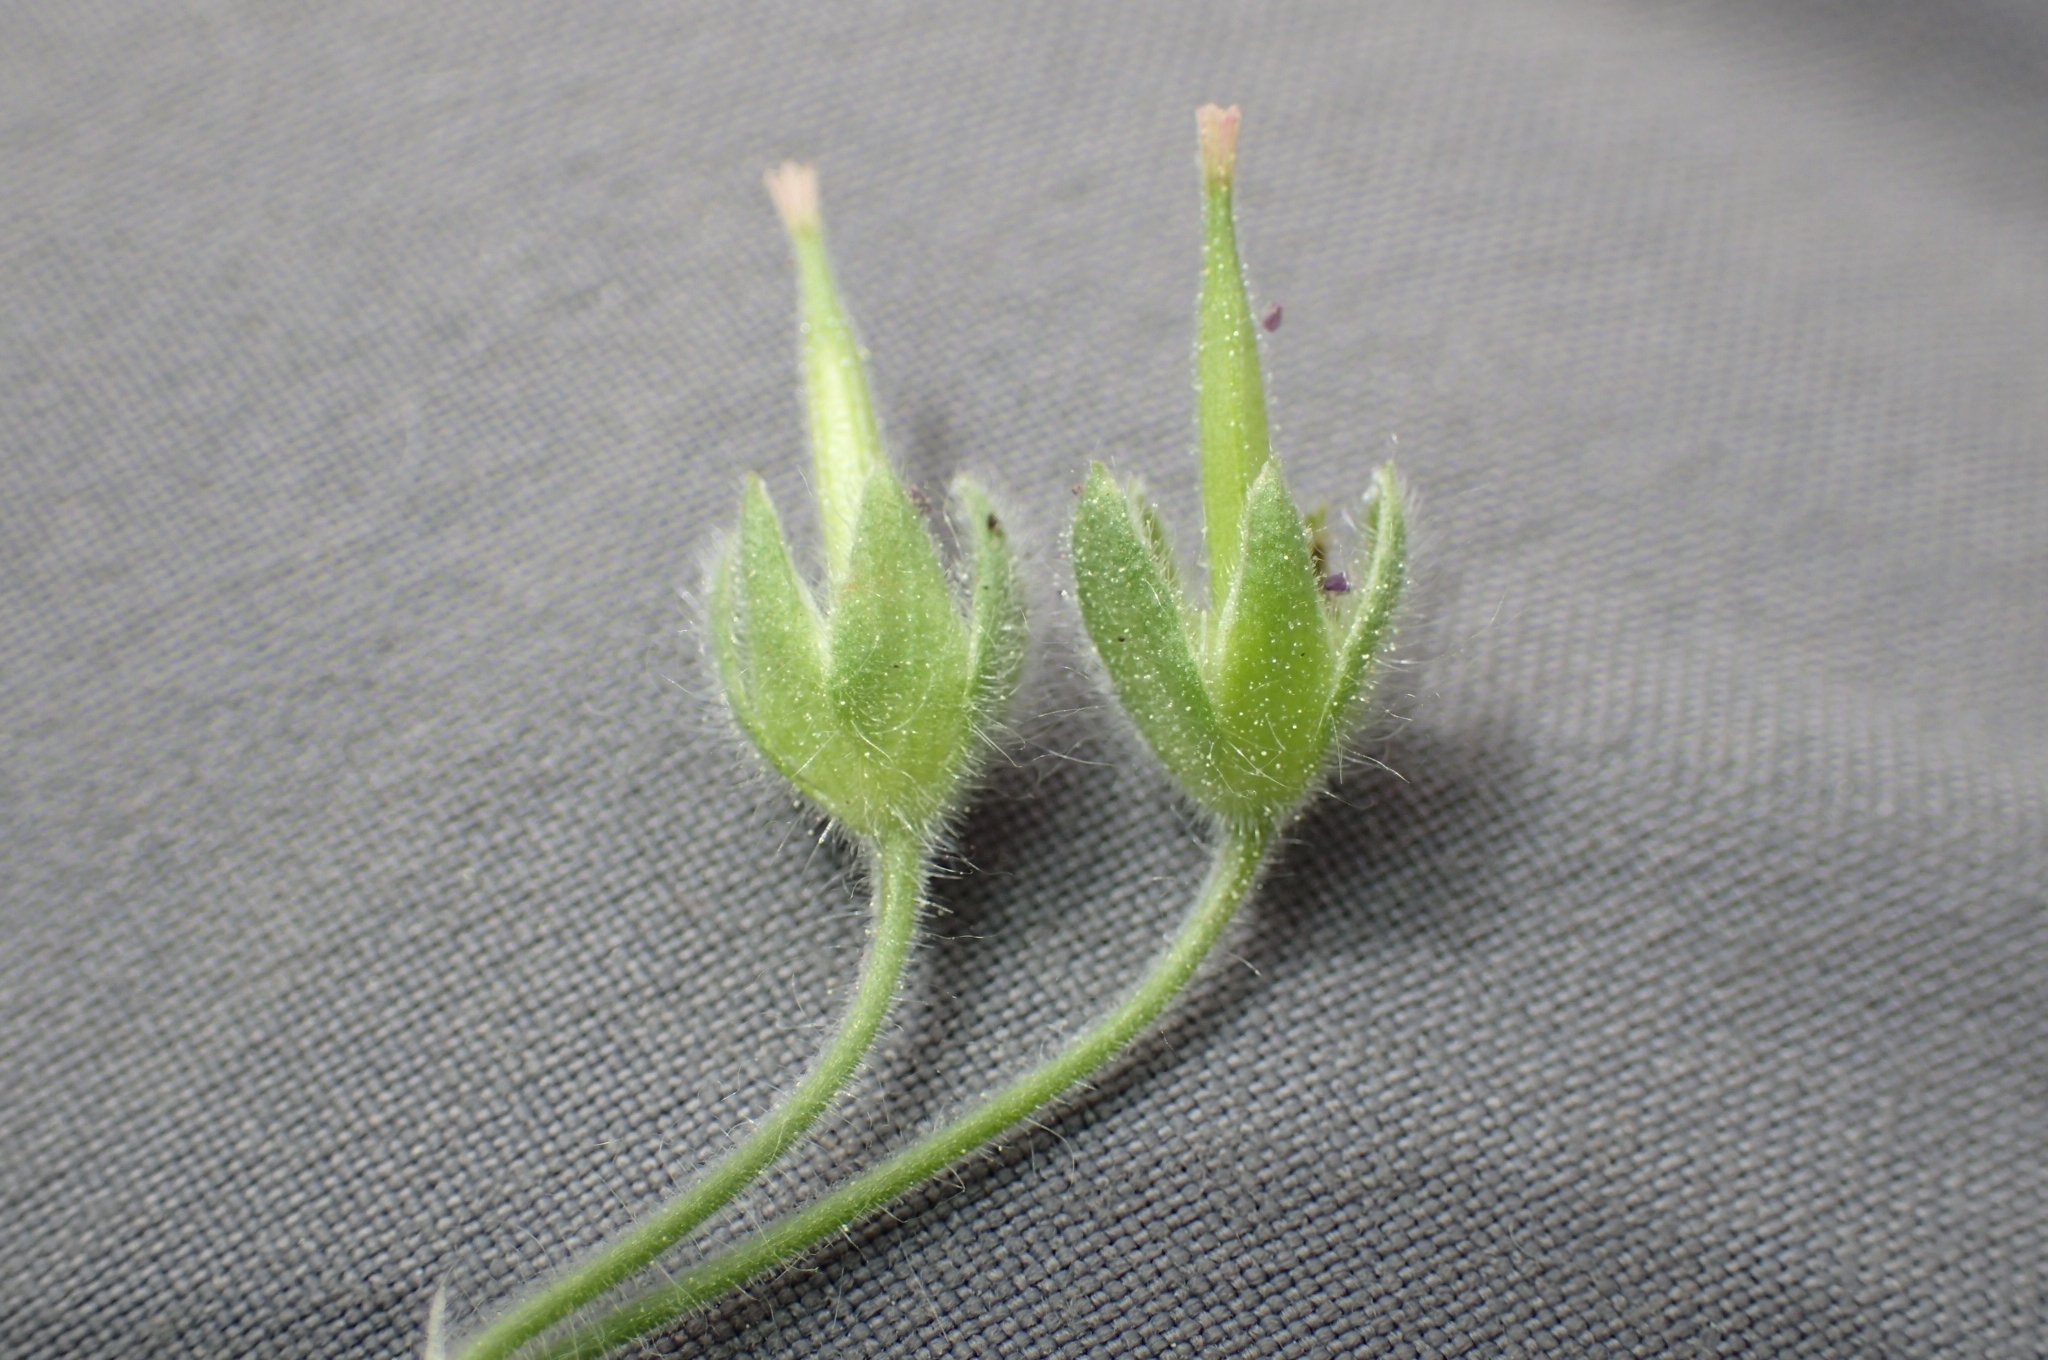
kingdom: Plantae
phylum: Tracheophyta
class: Magnoliopsida
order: Geraniales
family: Geraniaceae
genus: Geranium
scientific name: Geranium molle
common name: Dove's-foot crane's-bill
